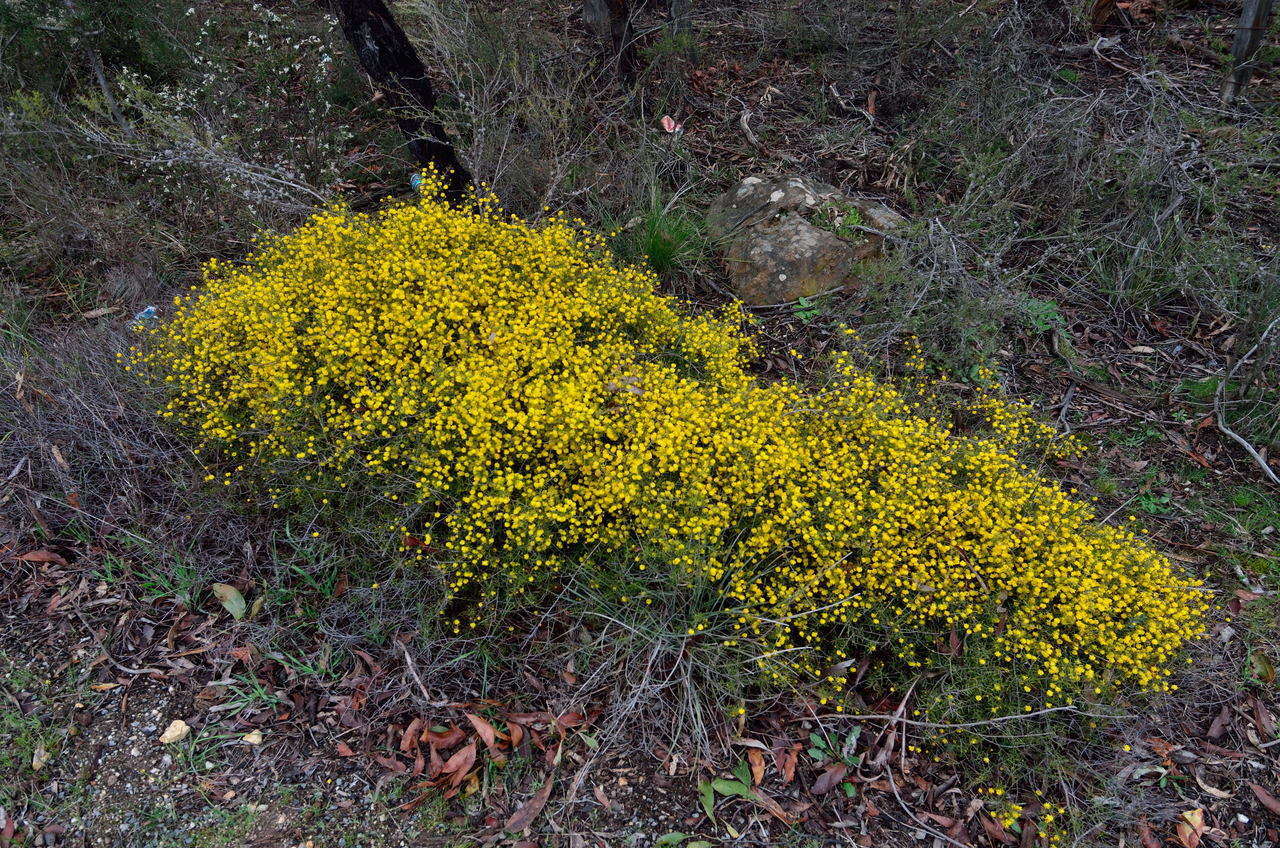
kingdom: Plantae
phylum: Tracheophyta
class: Magnoliopsida
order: Fabales
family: Fabaceae
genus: Acacia
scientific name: Acacia brownii
